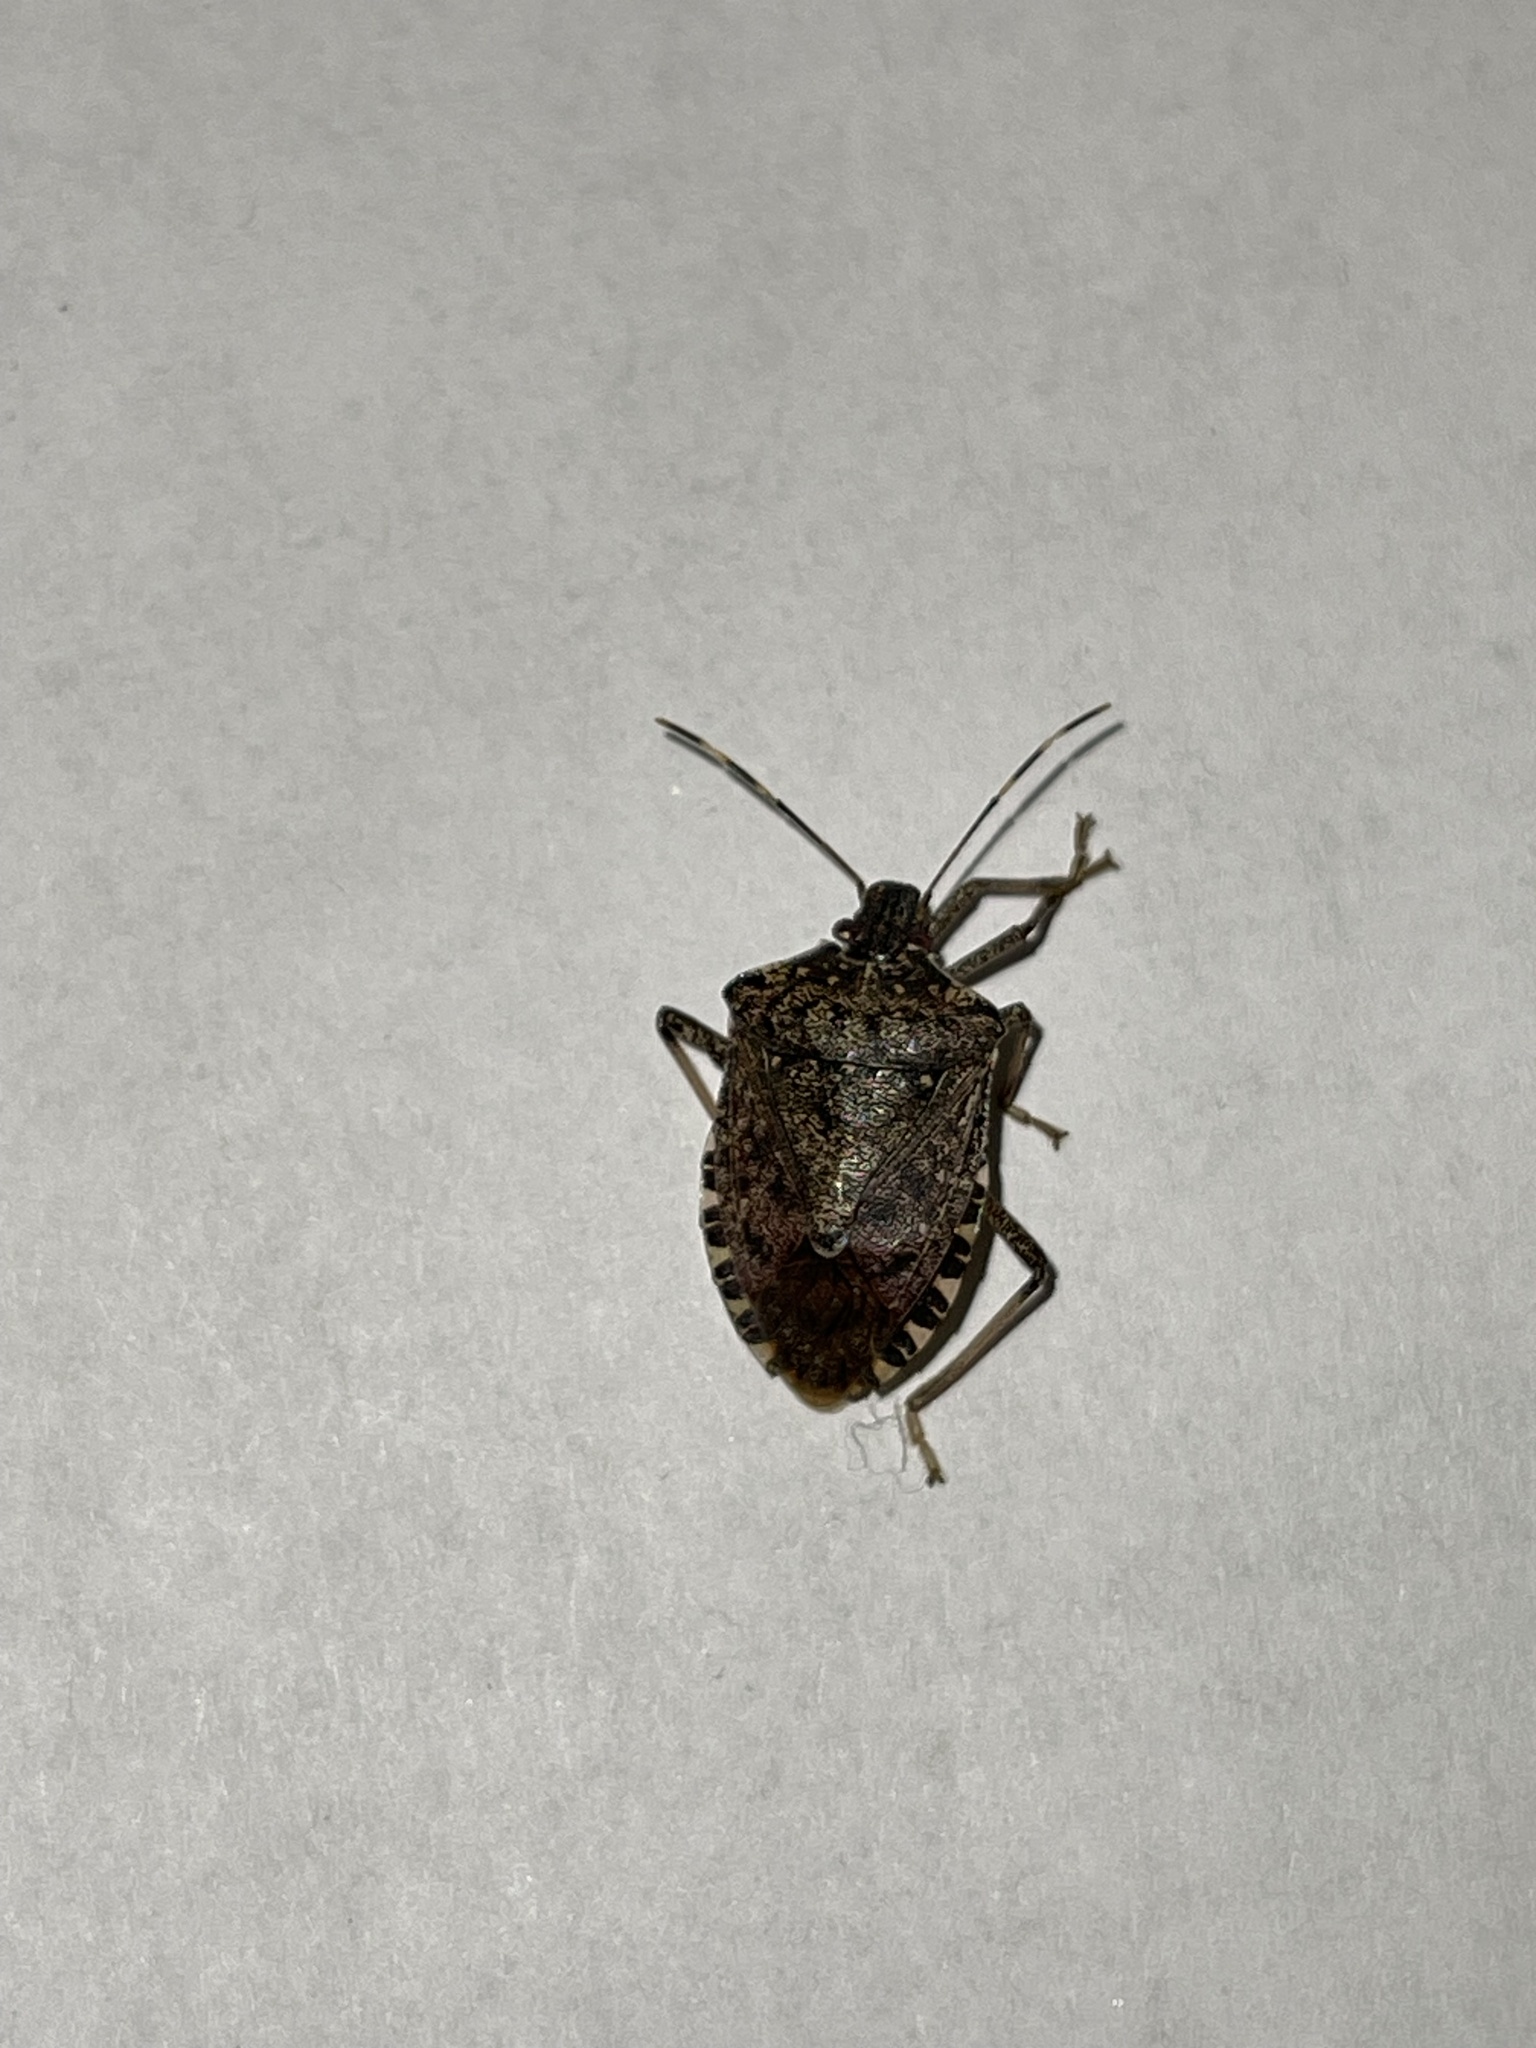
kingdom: Animalia
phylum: Arthropoda
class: Insecta
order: Hemiptera
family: Pentatomidae
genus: Halyomorpha
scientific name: Halyomorpha halys
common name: Brown marmorated stink bug
